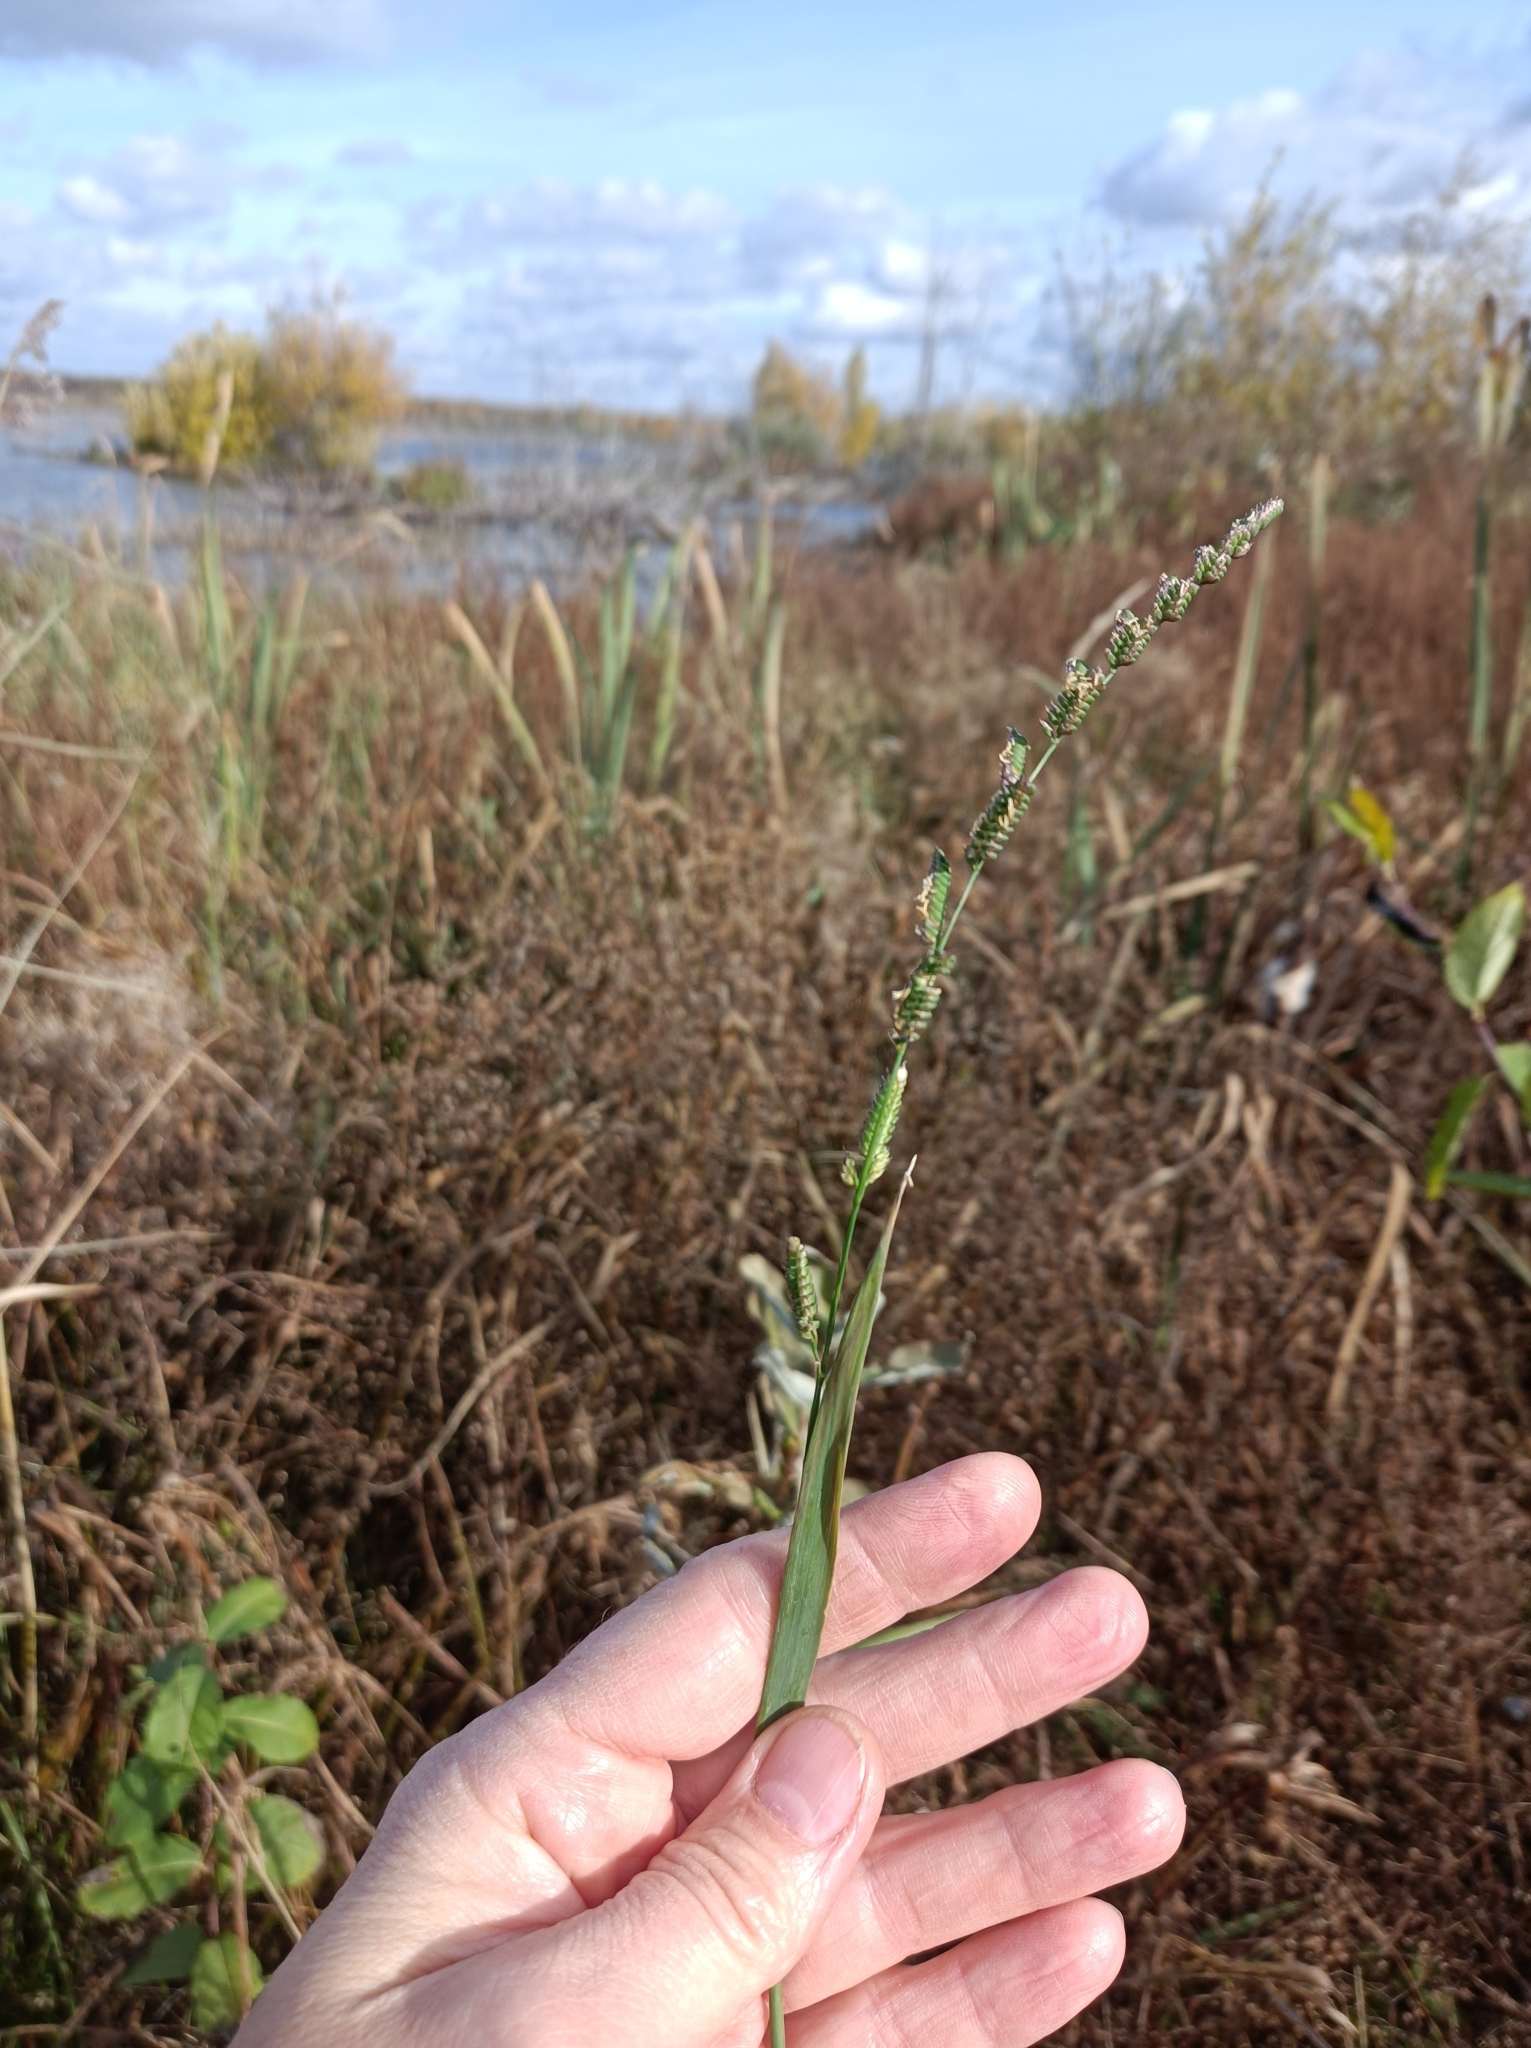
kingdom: Plantae
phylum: Tracheophyta
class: Liliopsida
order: Poales
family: Poaceae
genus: Beckmannia
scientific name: Beckmannia eruciformis
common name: European slough-grass
